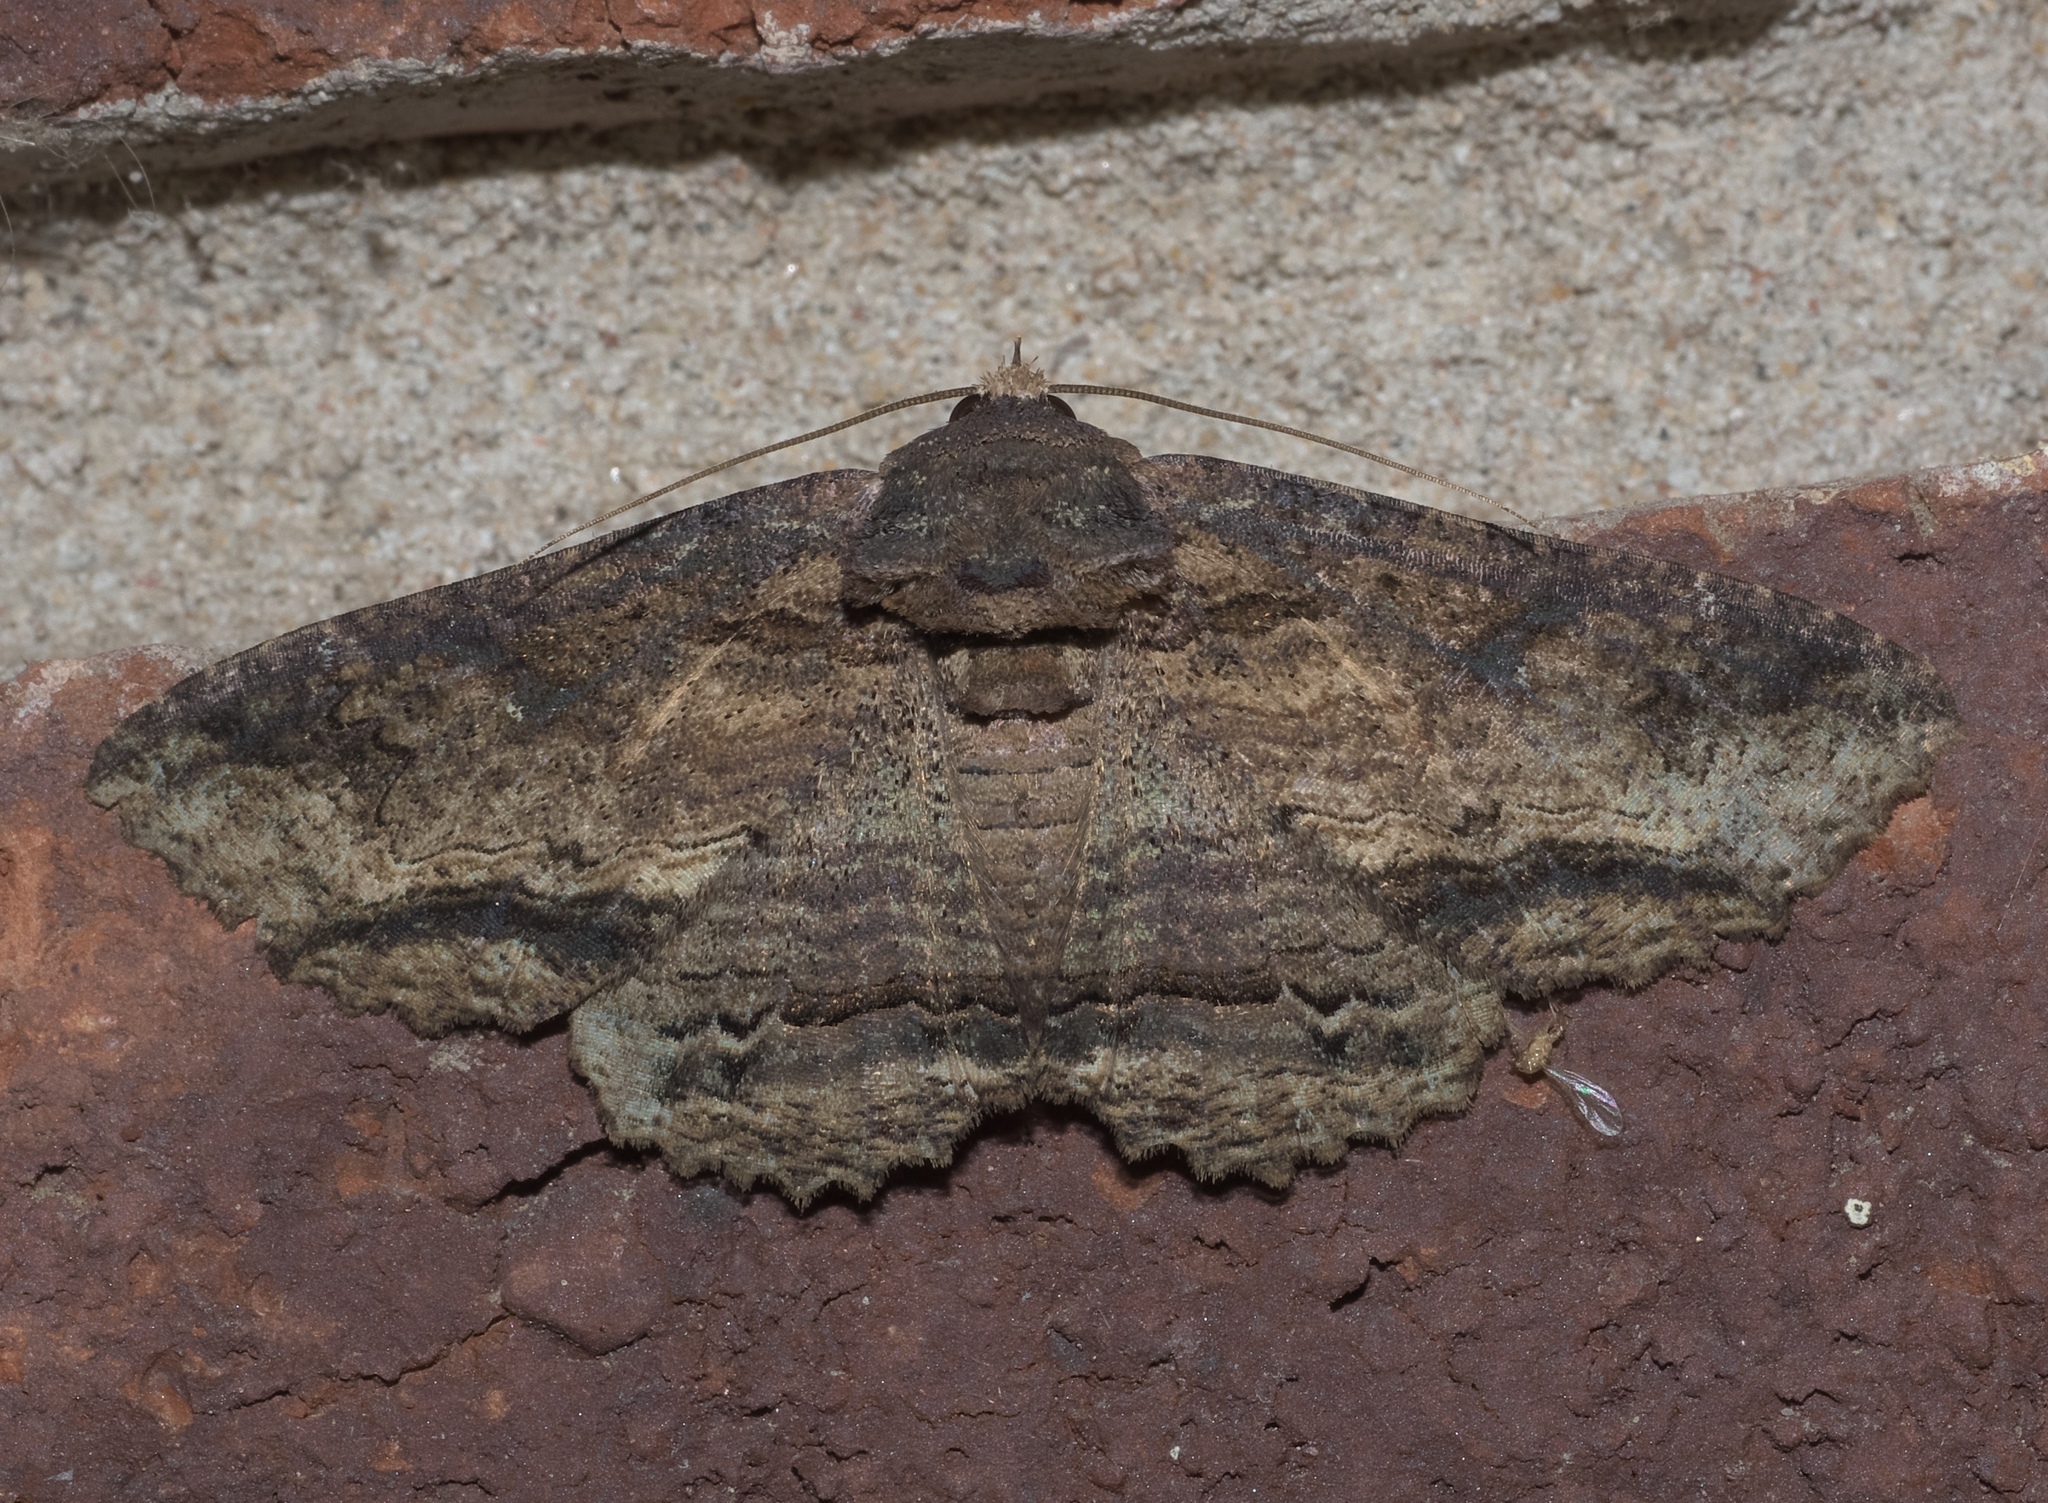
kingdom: Animalia
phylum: Arthropoda
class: Insecta
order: Lepidoptera
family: Erebidae
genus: Zale
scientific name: Zale lunata
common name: Lunate zale moth
